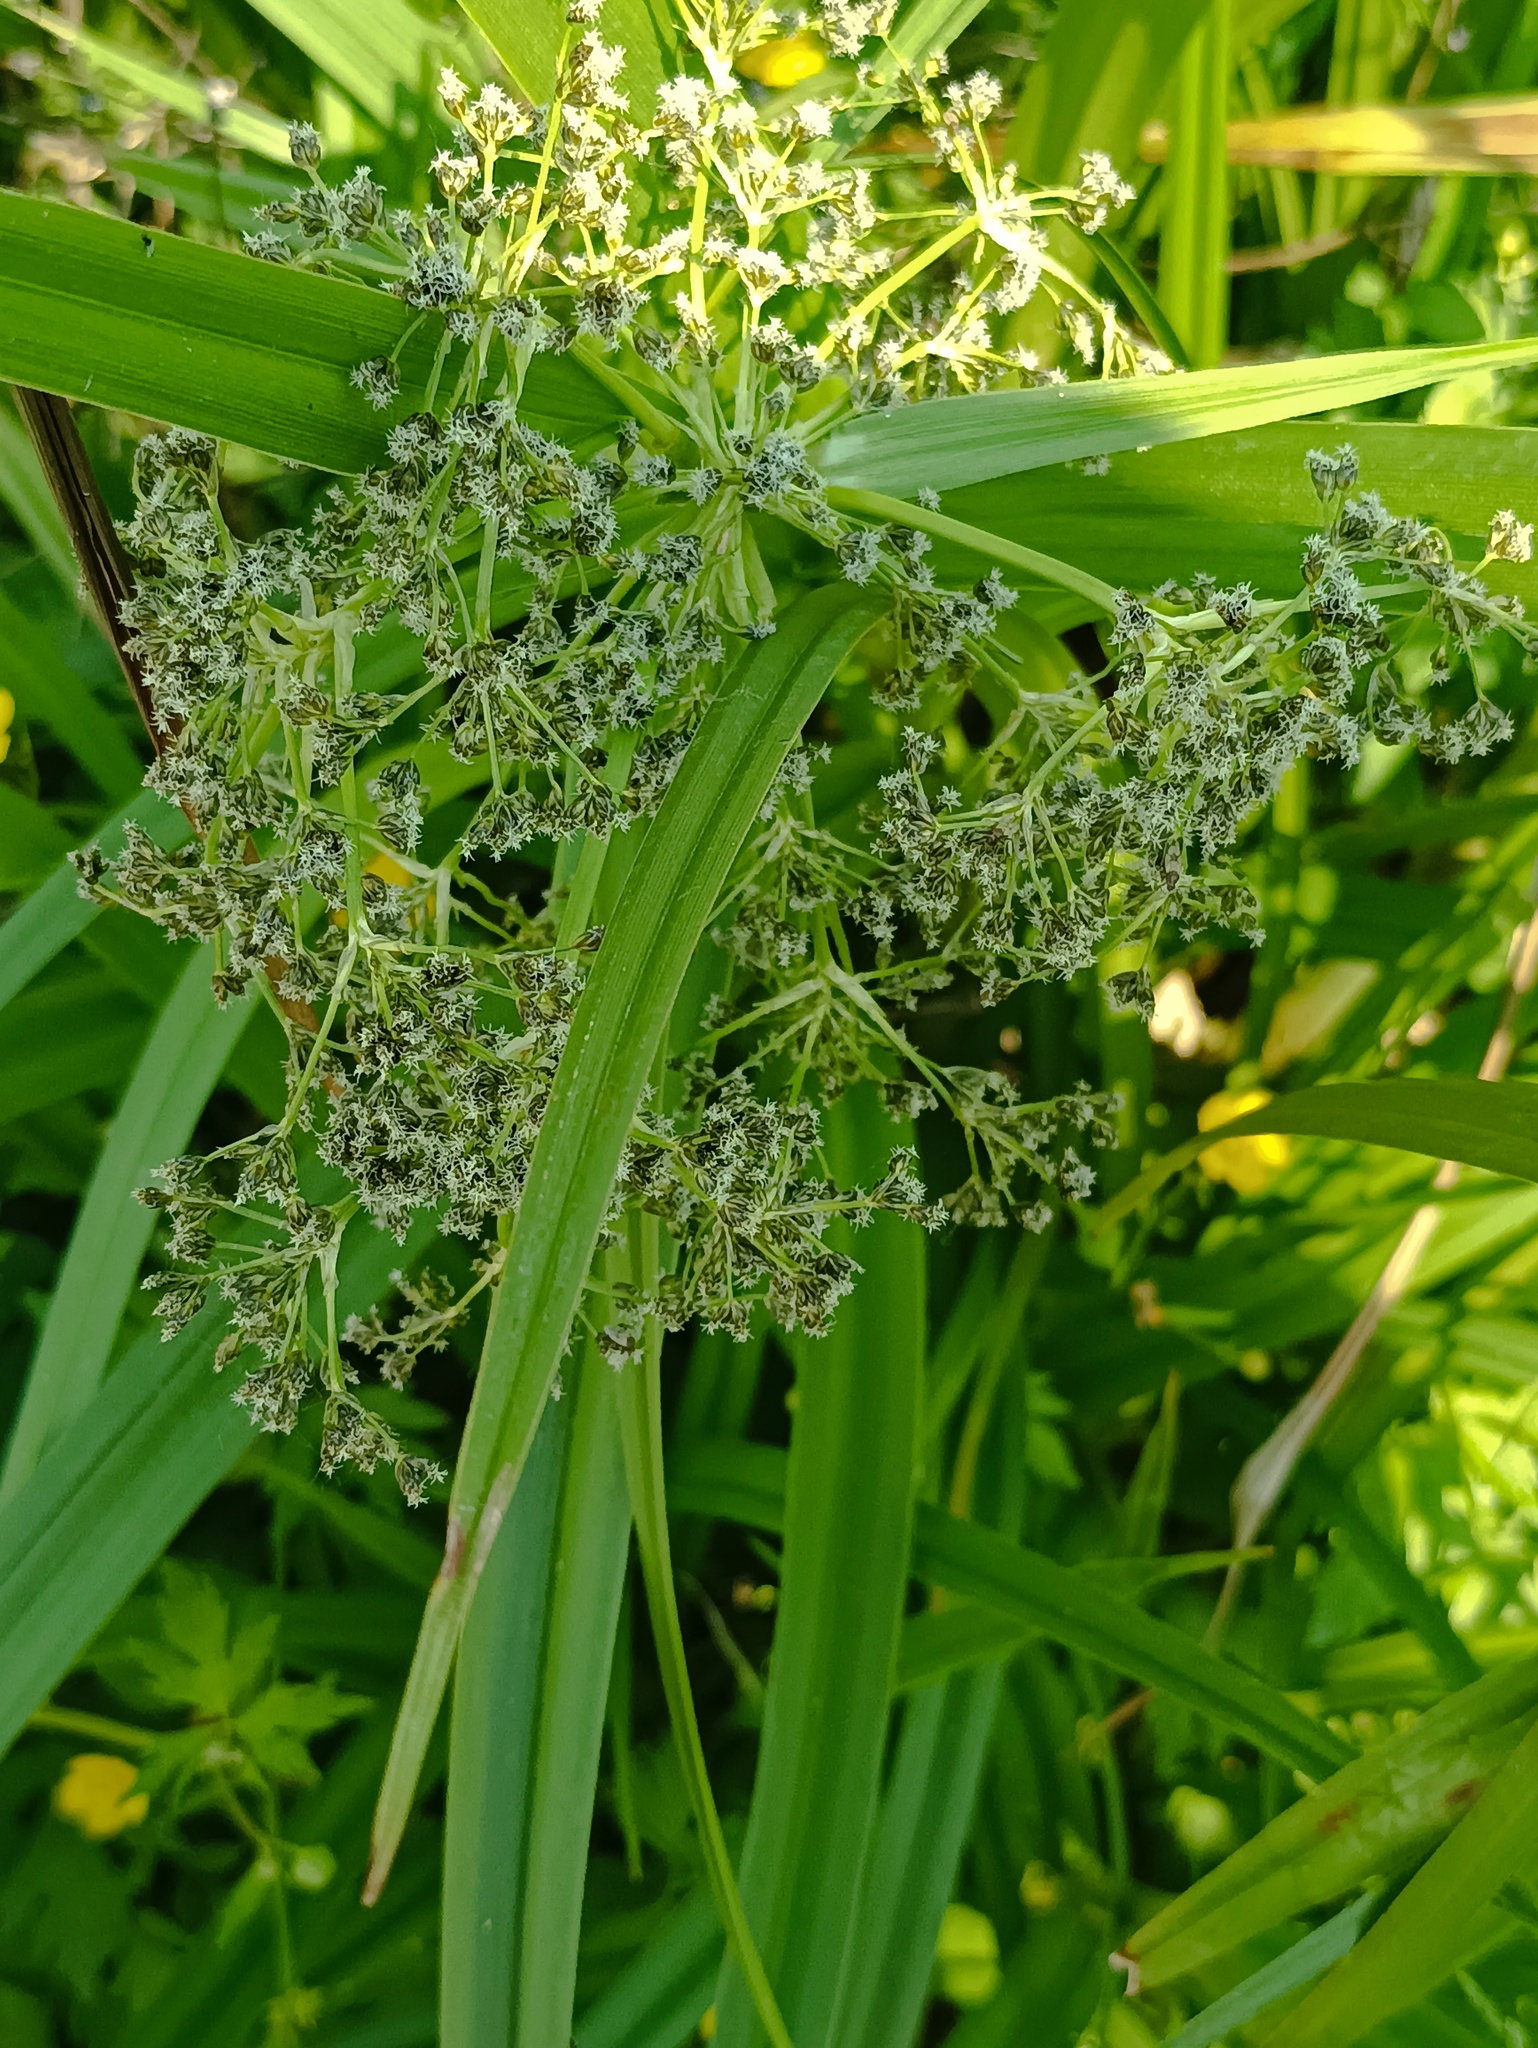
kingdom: Plantae
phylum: Tracheophyta
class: Liliopsida
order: Poales
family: Cyperaceae
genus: Scirpus
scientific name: Scirpus sylvaticus
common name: Wood club-rush
